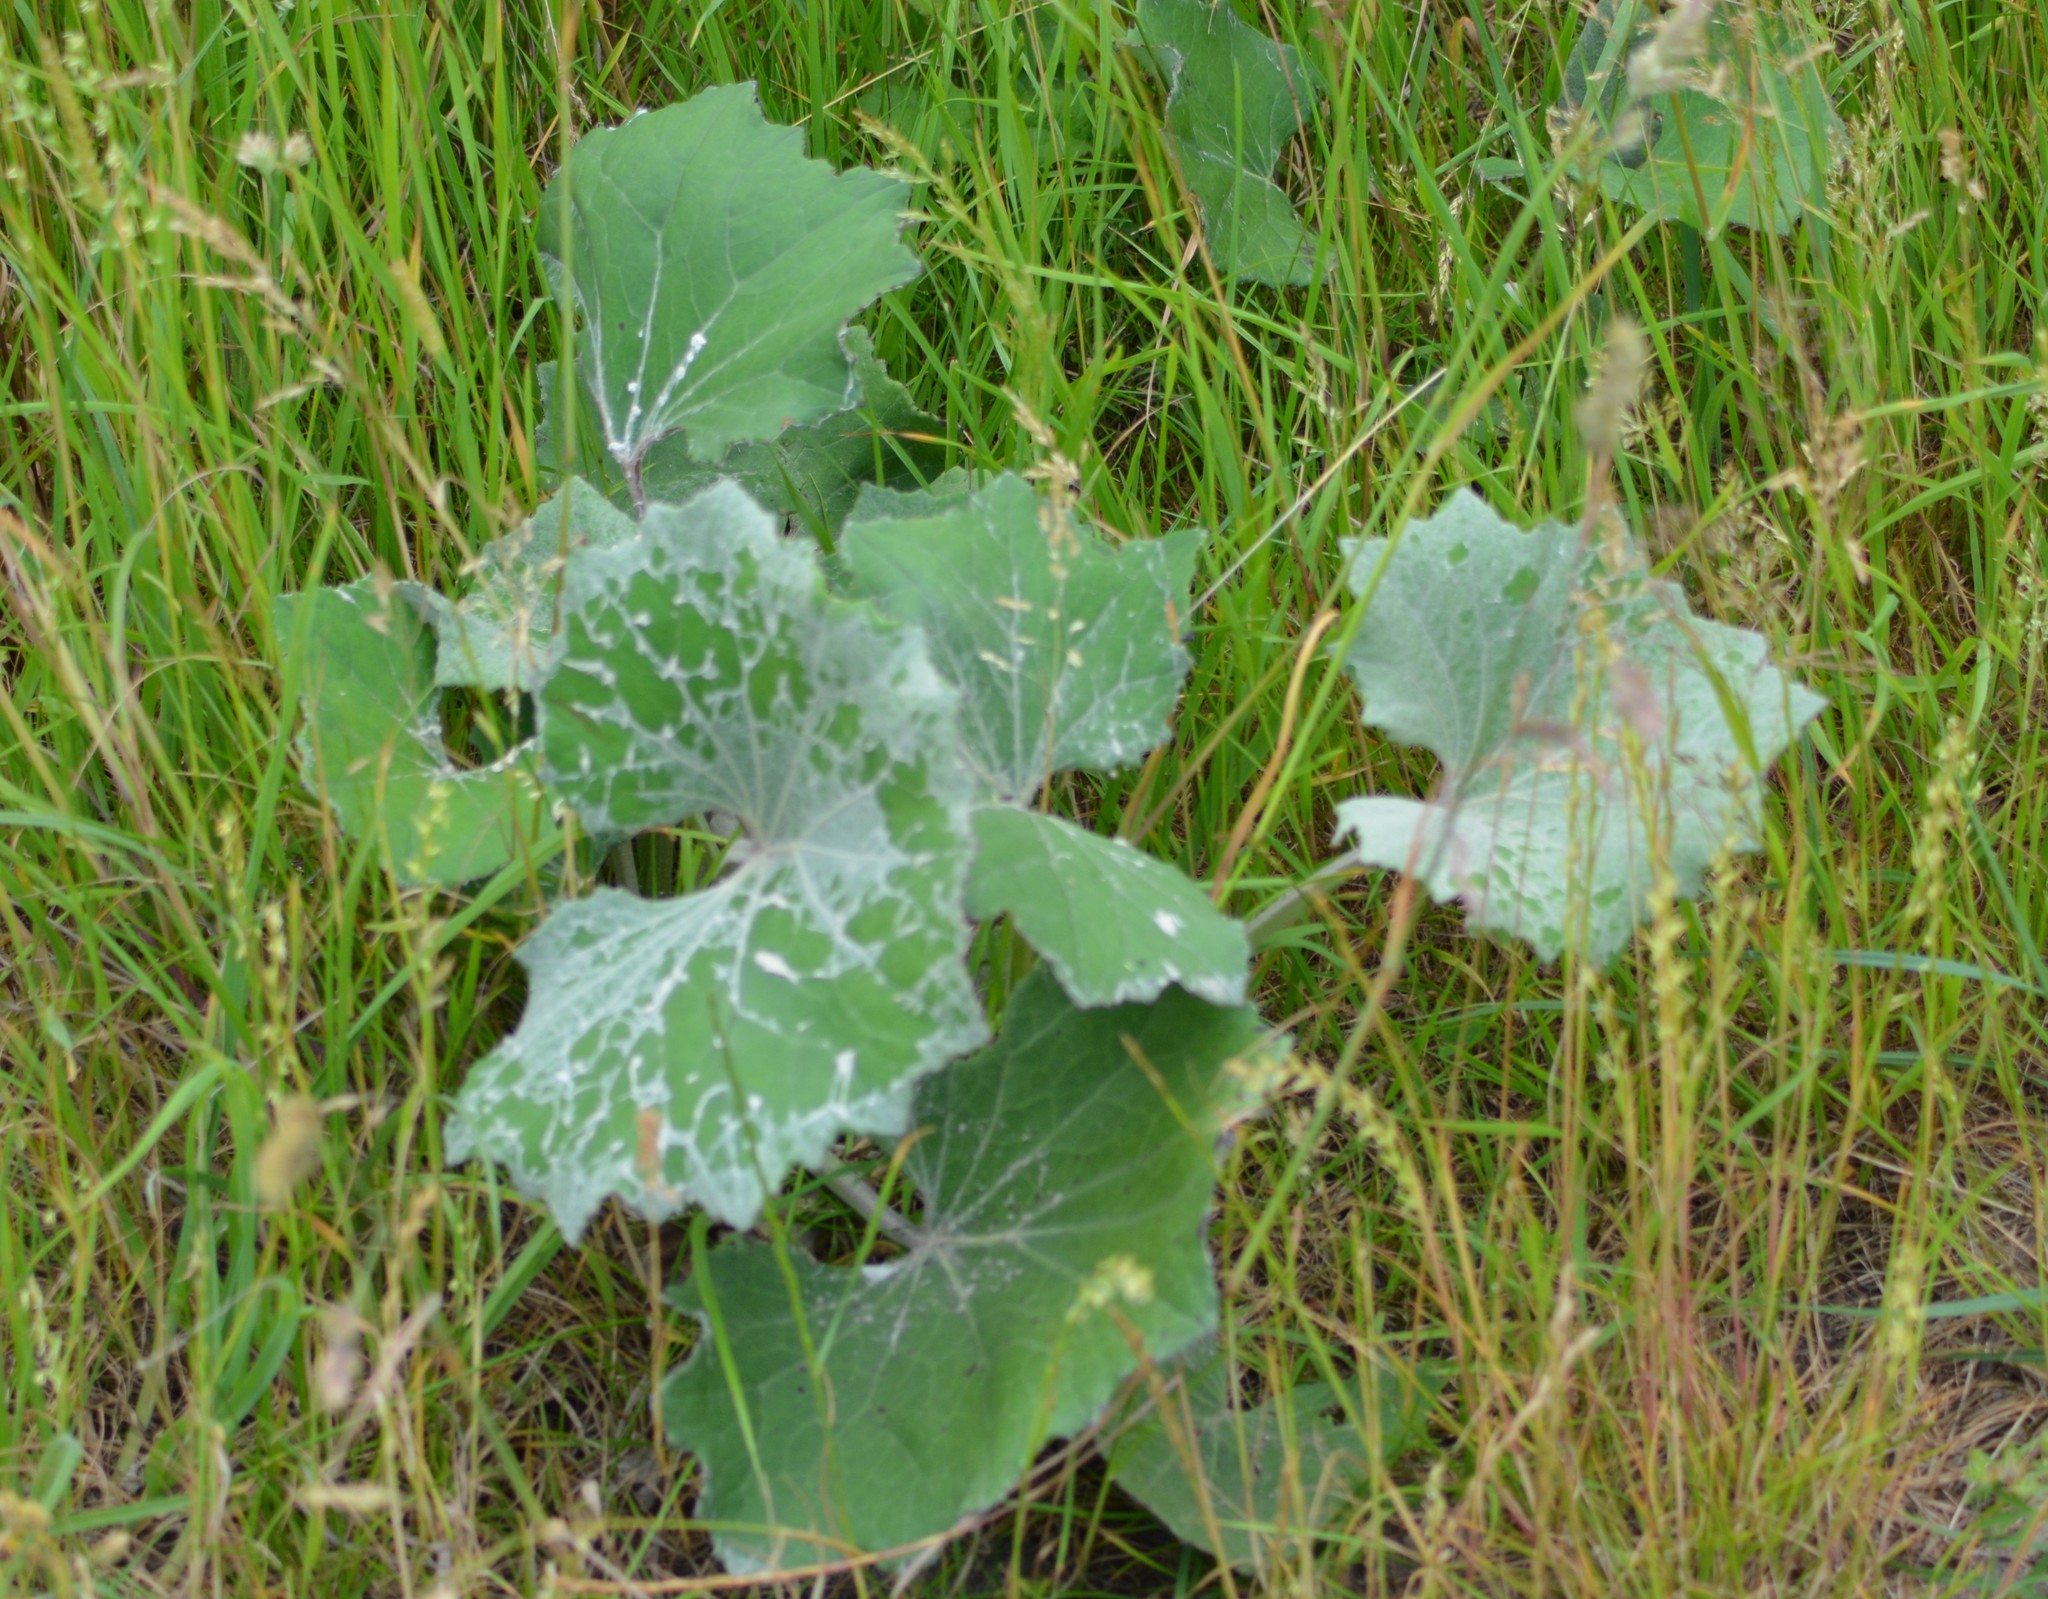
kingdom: Plantae
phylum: Tracheophyta
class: Magnoliopsida
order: Asterales
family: Asteraceae
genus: Tussilago
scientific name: Tussilago farfara
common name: Coltsfoot
